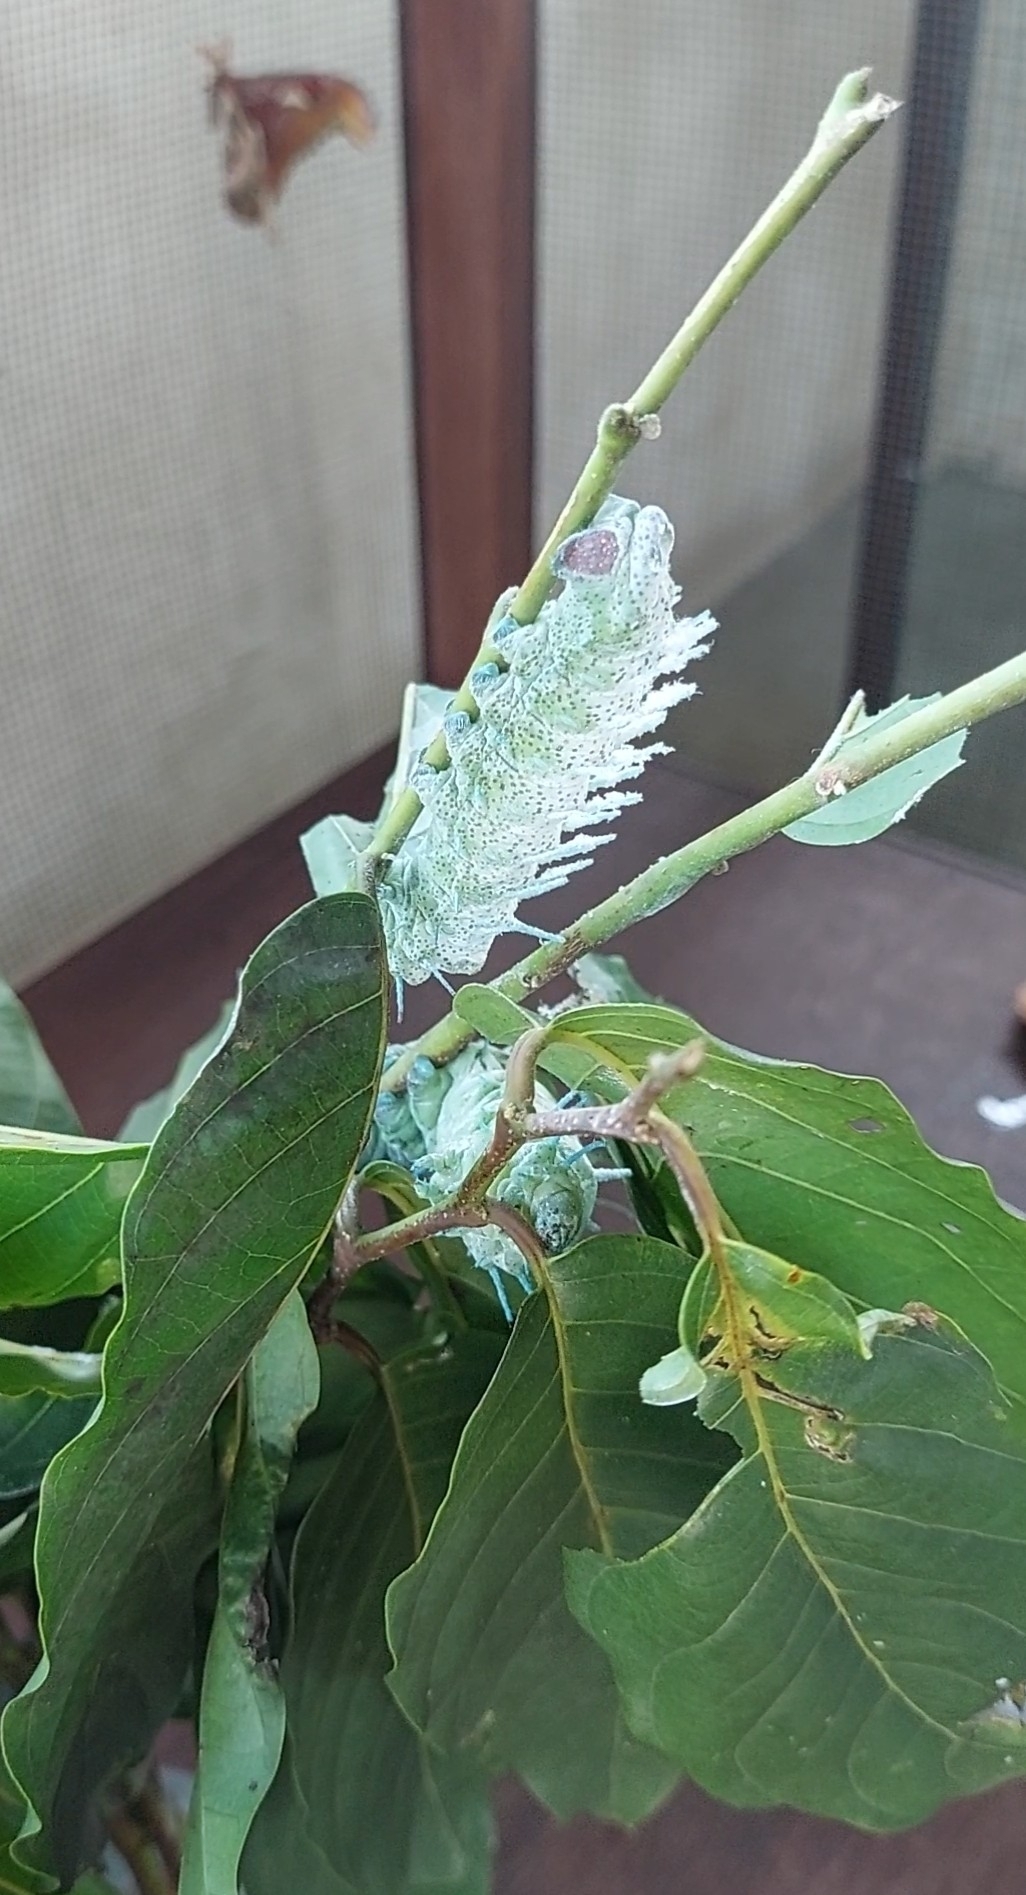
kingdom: Animalia
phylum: Arthropoda
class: Insecta
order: Lepidoptera
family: Saturniidae
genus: Attacus
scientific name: Attacus atlas
